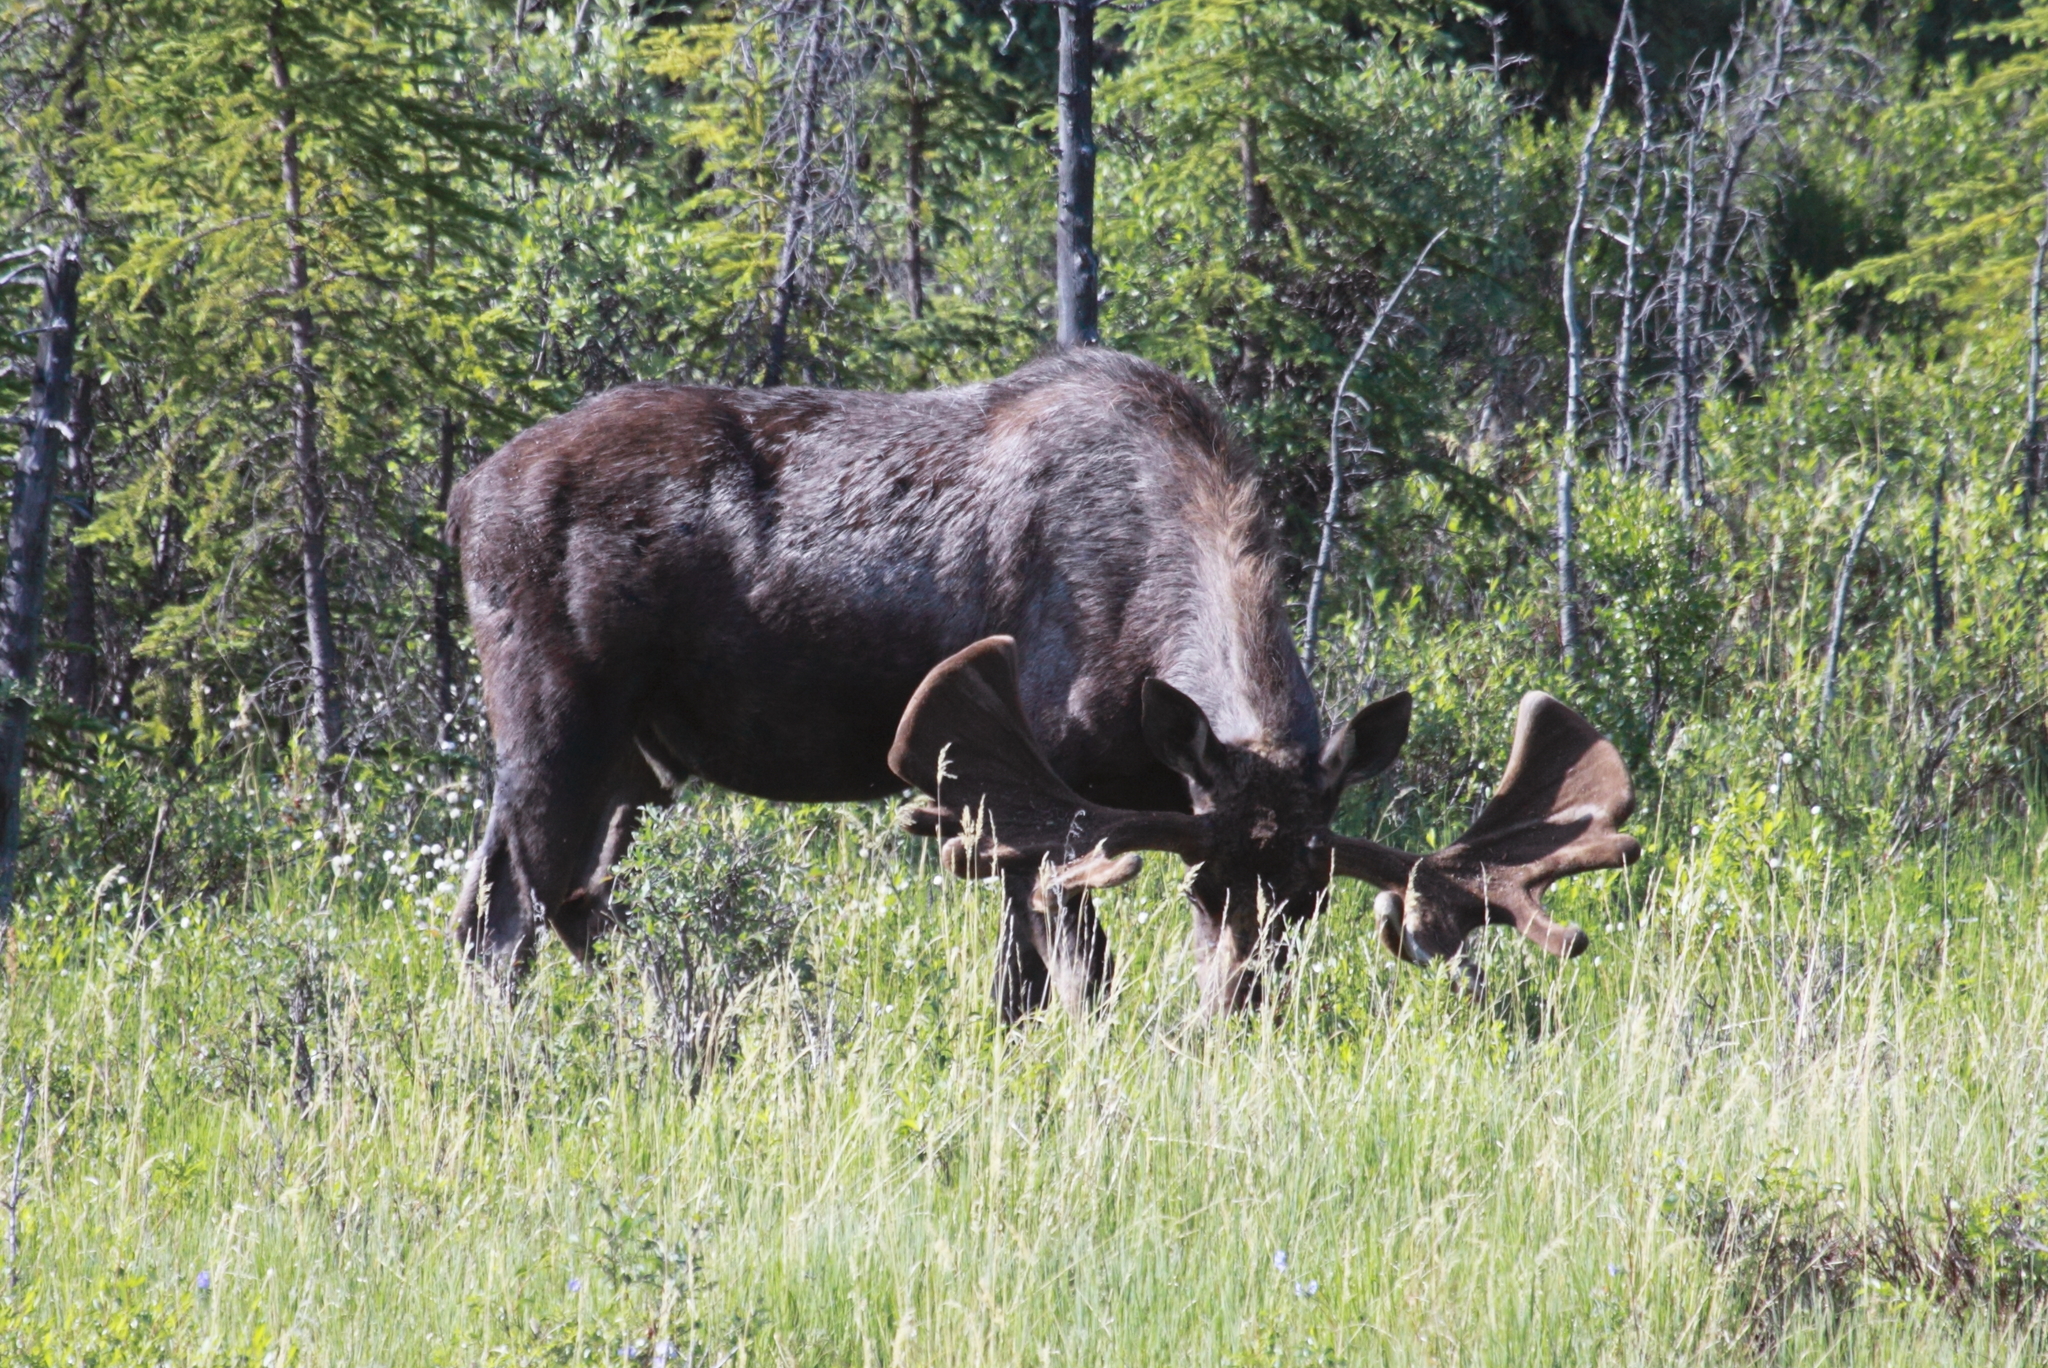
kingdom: Animalia
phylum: Chordata
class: Mammalia
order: Artiodactyla
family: Cervidae
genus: Alces
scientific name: Alces alces
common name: Moose
